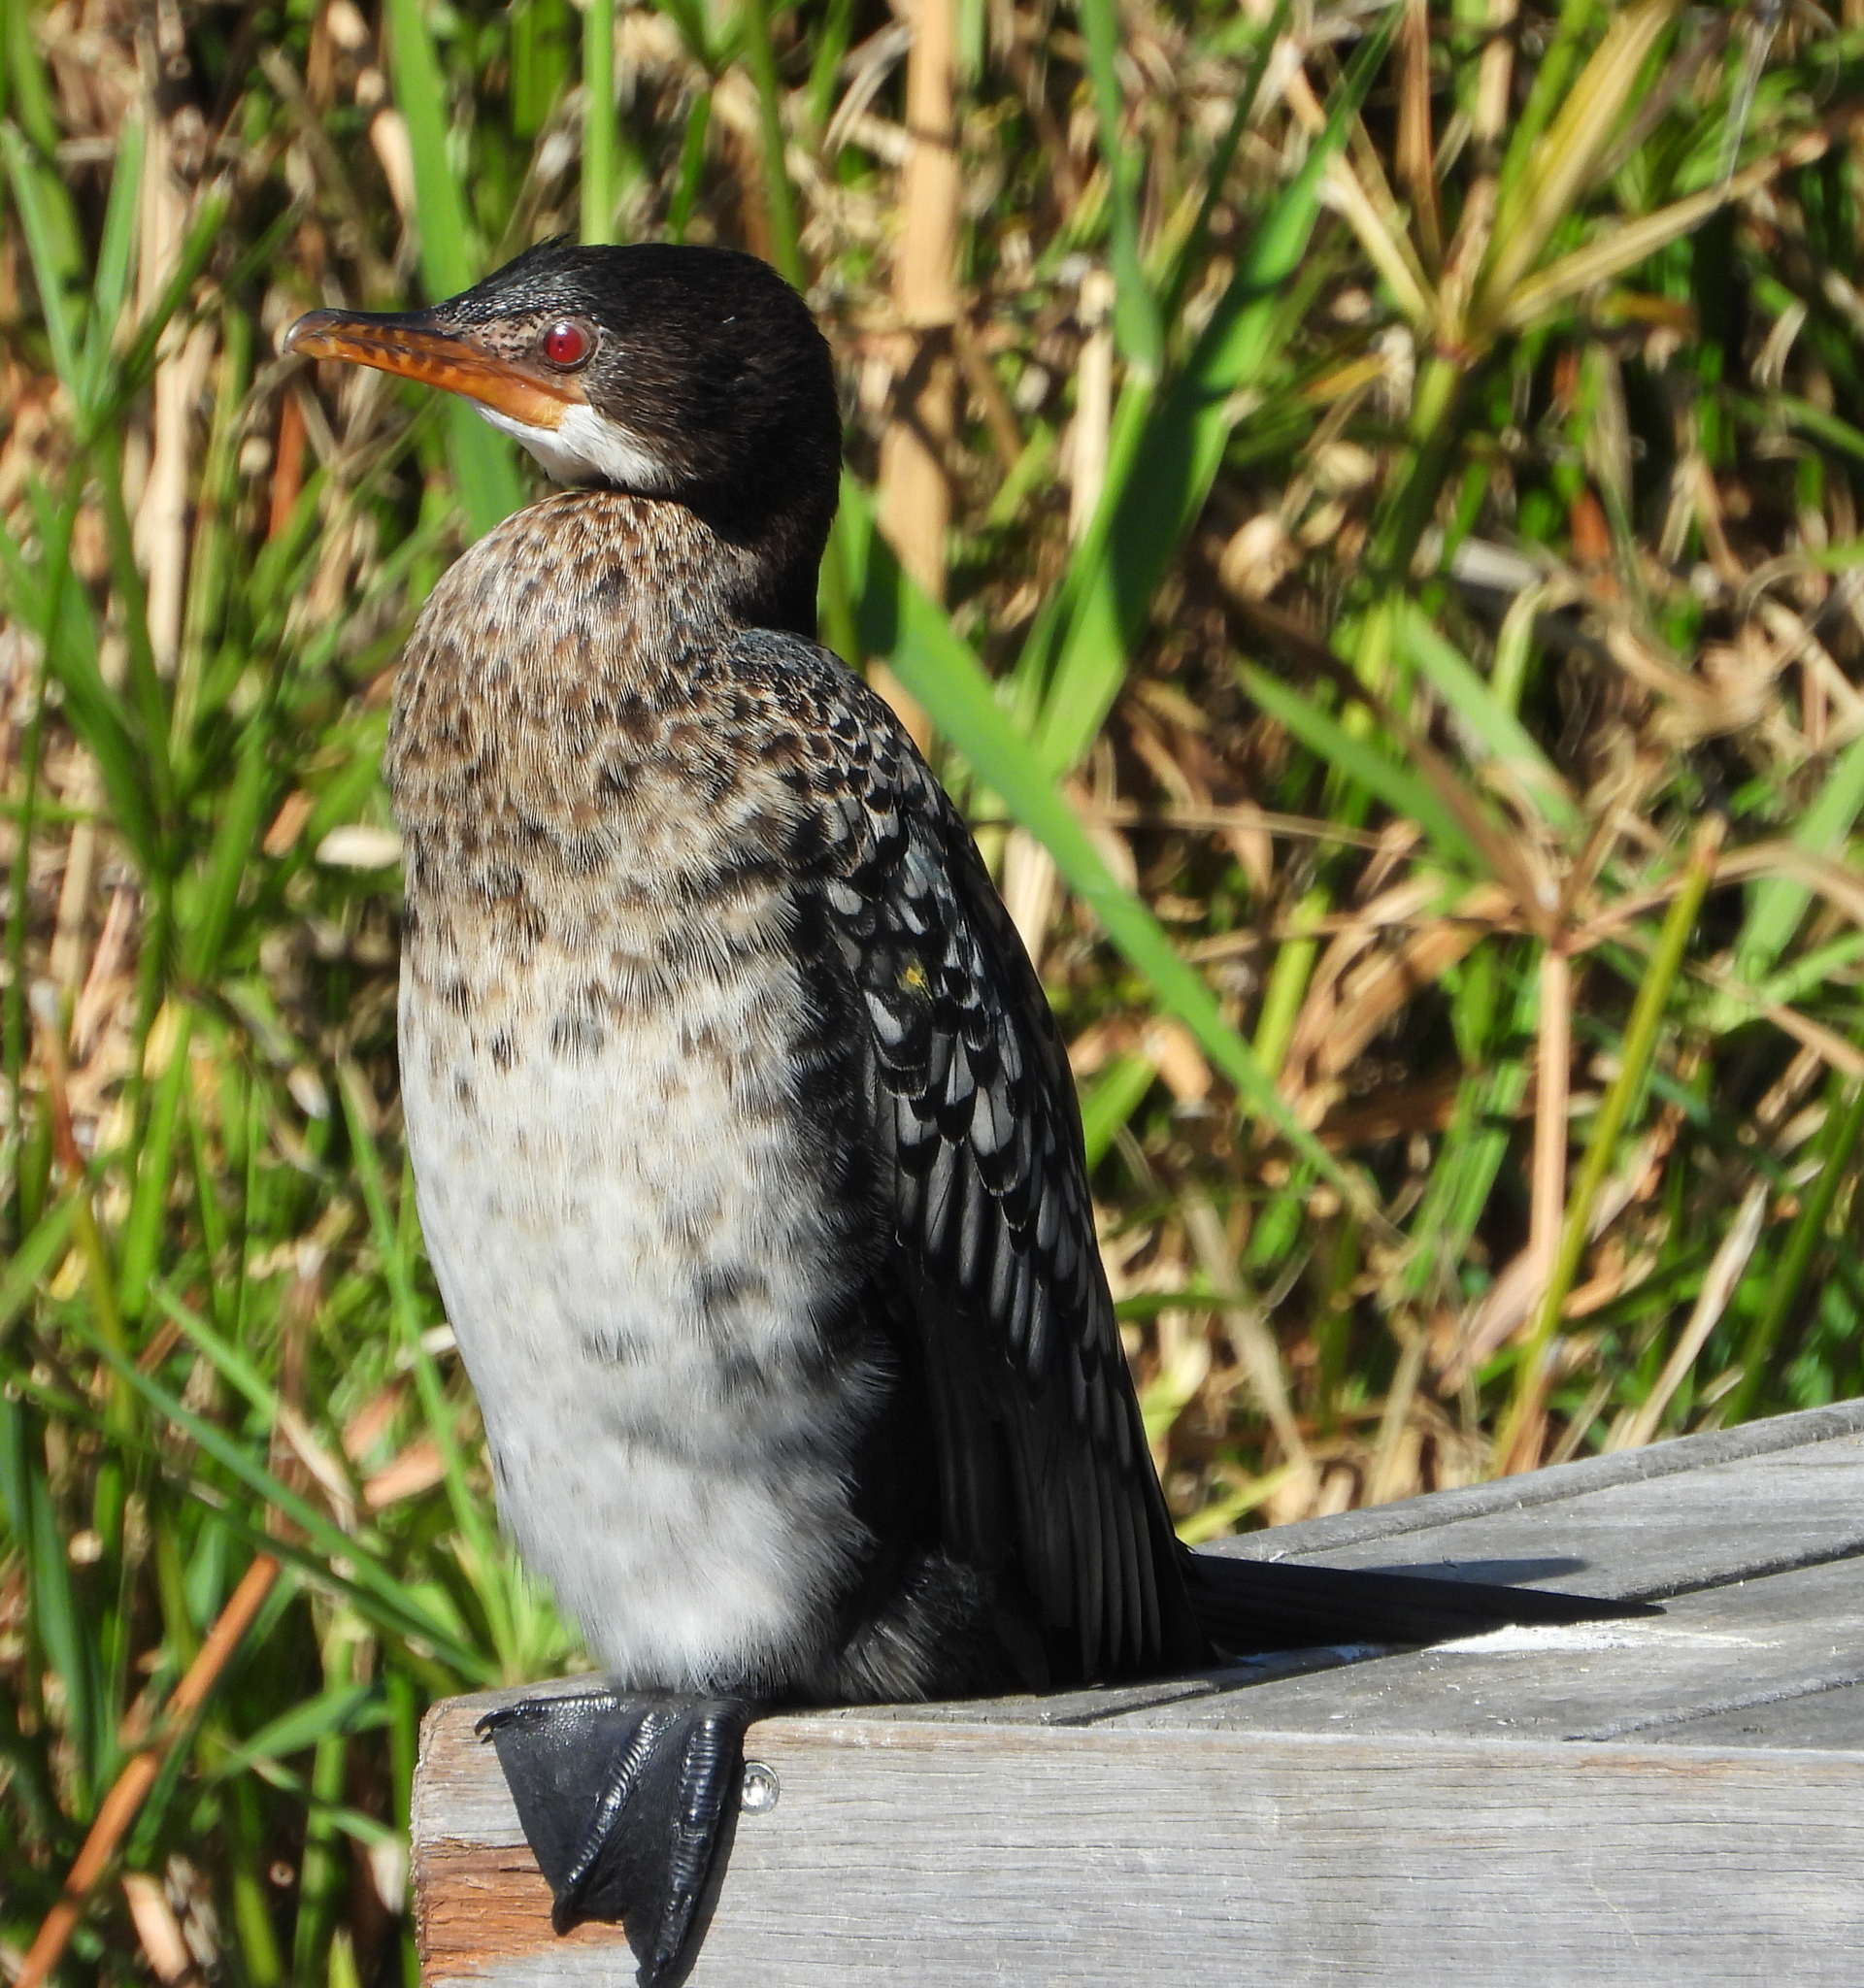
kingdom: Animalia
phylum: Chordata
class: Aves
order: Suliformes
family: Phalacrocoracidae
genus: Microcarbo
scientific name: Microcarbo africanus
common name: Long-tailed cormorant
